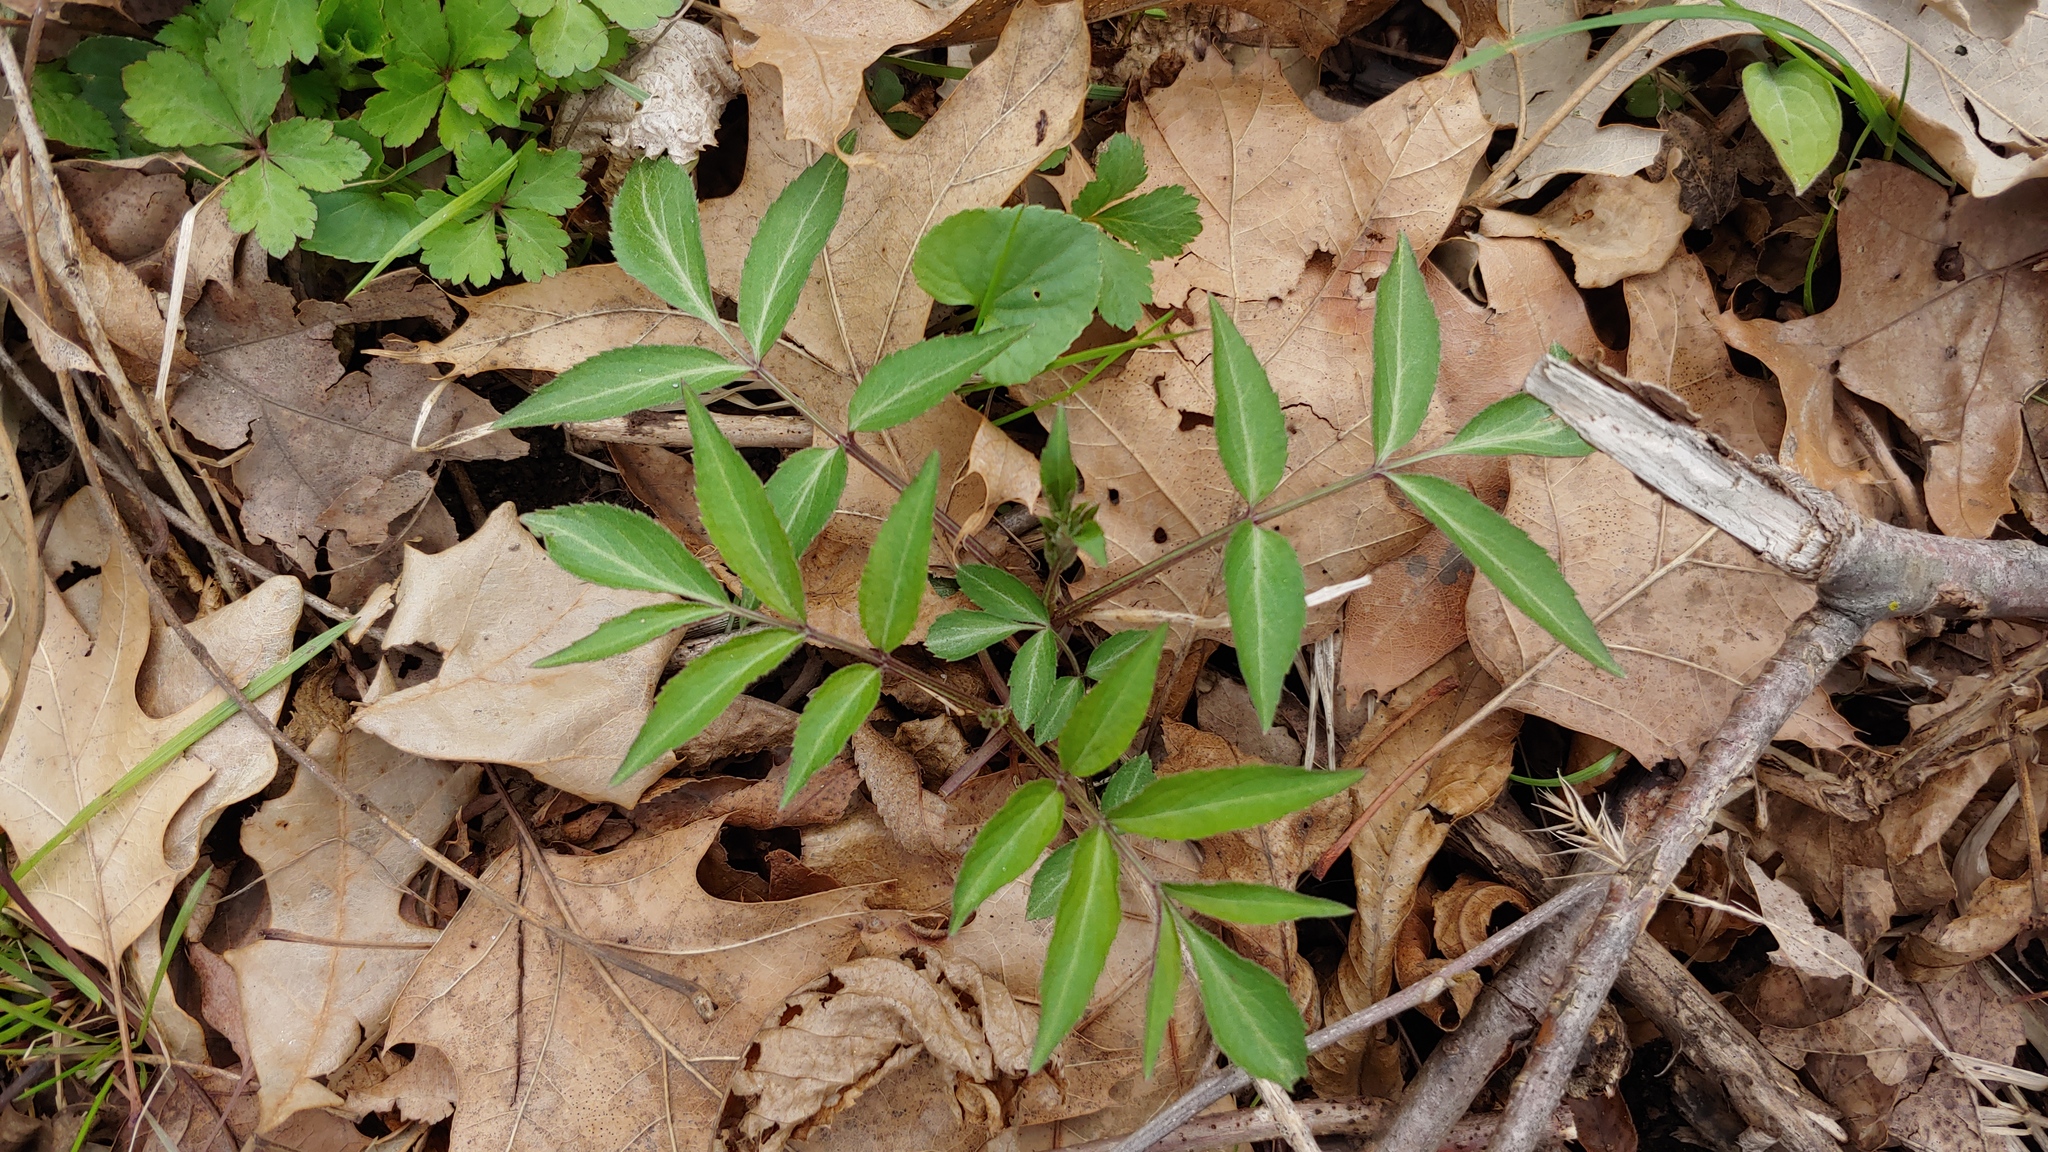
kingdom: Plantae
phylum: Tracheophyta
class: Magnoliopsida
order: Dipsacales
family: Viburnaceae
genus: Sambucus
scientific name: Sambucus canadensis
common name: American elder
